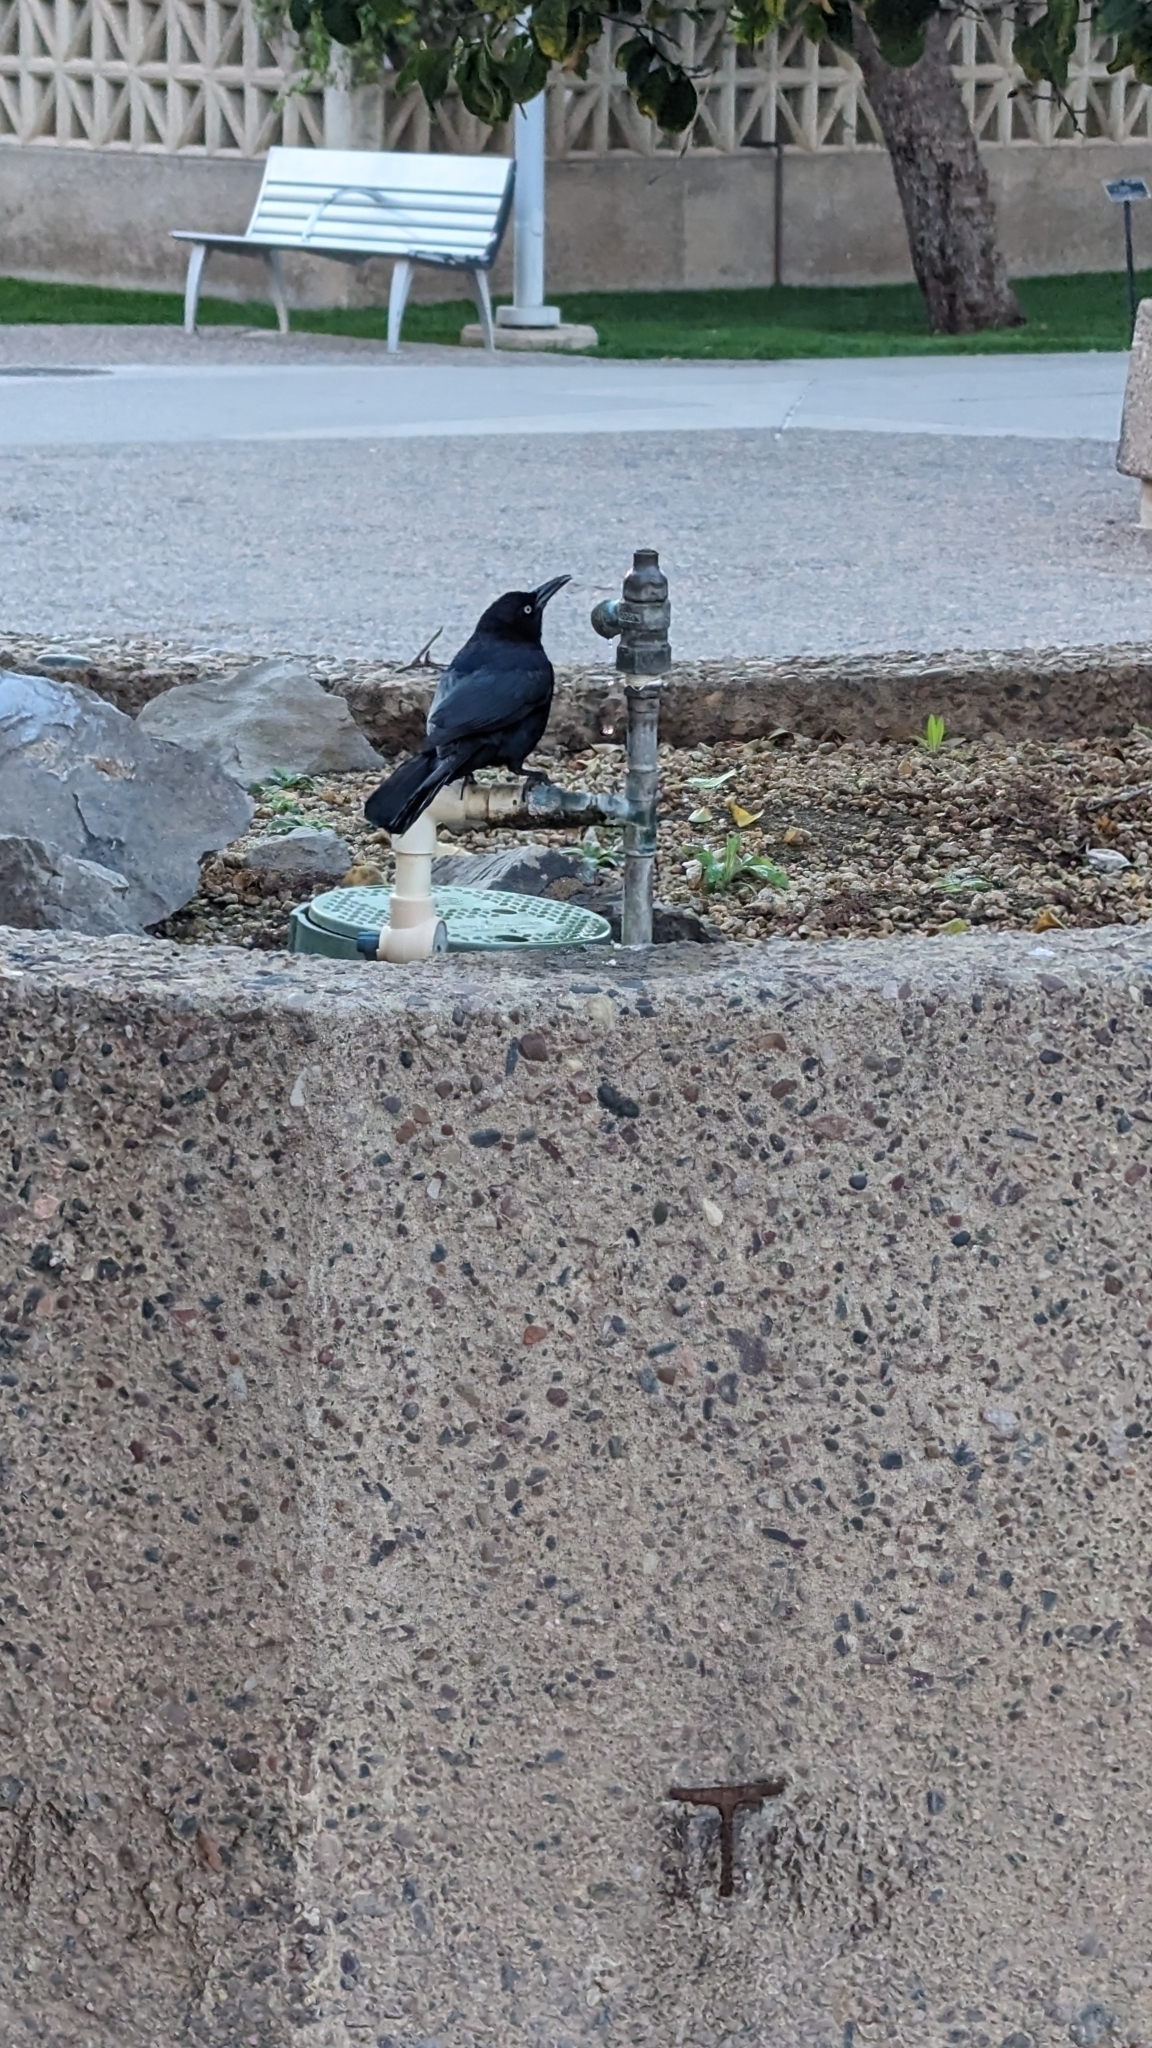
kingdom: Animalia
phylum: Chordata
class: Aves
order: Passeriformes
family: Icteridae
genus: Quiscalus
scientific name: Quiscalus mexicanus
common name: Great-tailed grackle
